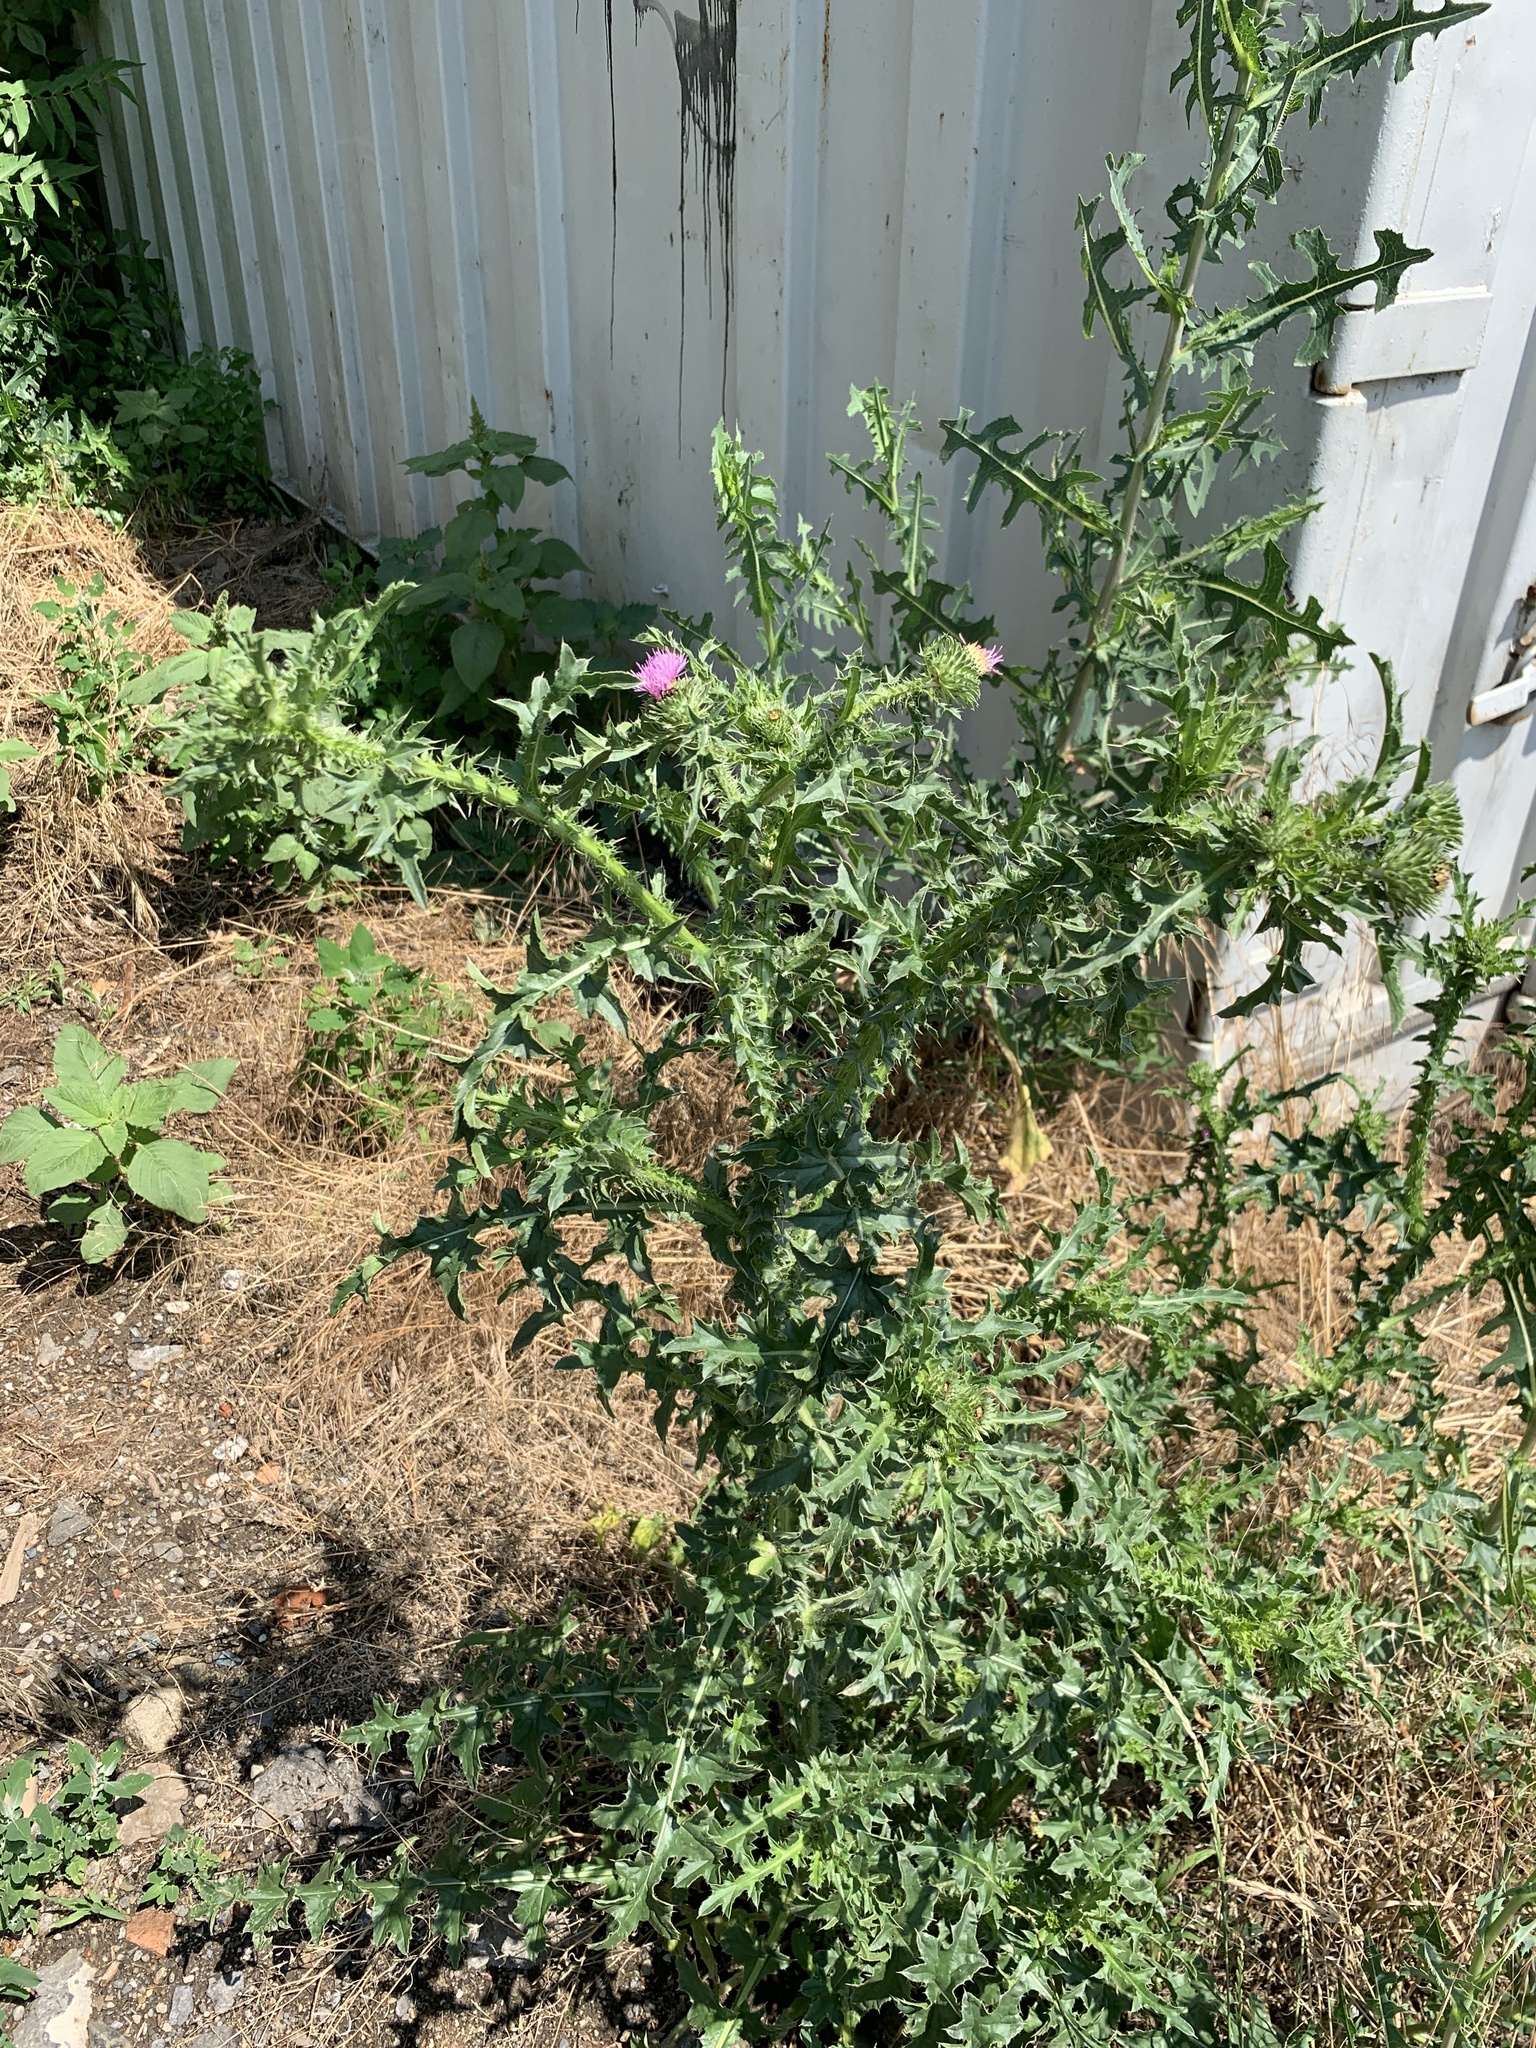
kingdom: Plantae
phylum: Tracheophyta
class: Magnoliopsida
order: Asterales
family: Asteraceae
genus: Carduus
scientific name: Carduus acanthoides
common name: Plumeless thistle
